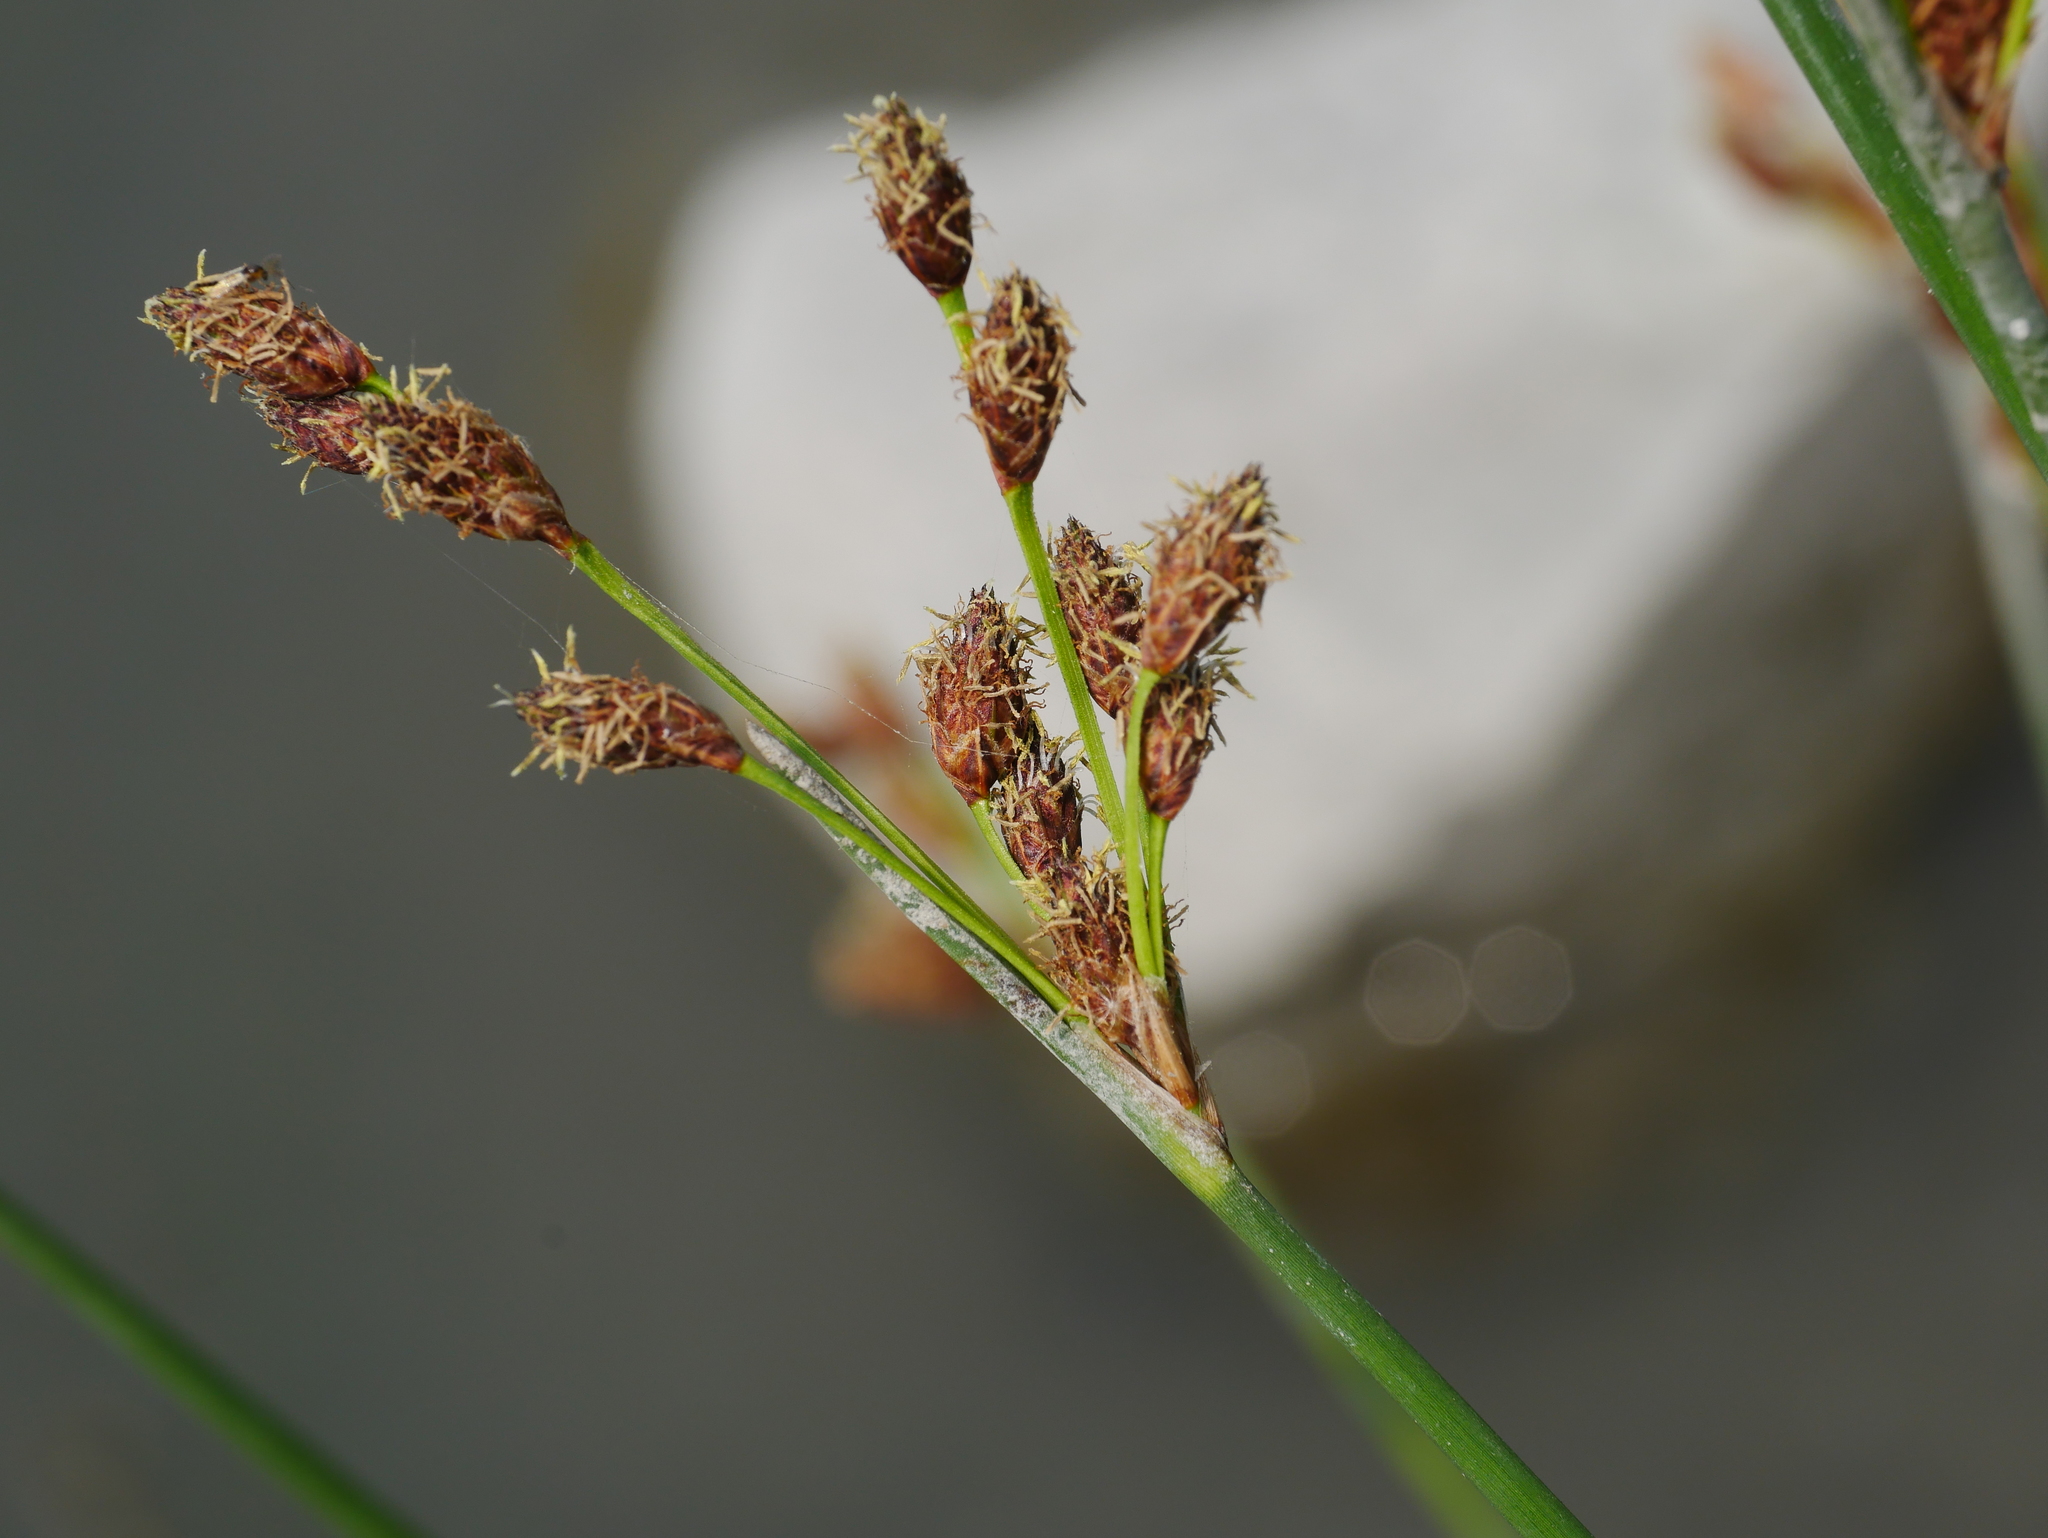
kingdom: Plantae
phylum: Tracheophyta
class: Liliopsida
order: Poales
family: Cyperaceae
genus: Schoenoplectus
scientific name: Schoenoplectus tabernaemontani
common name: Grey club-rush
